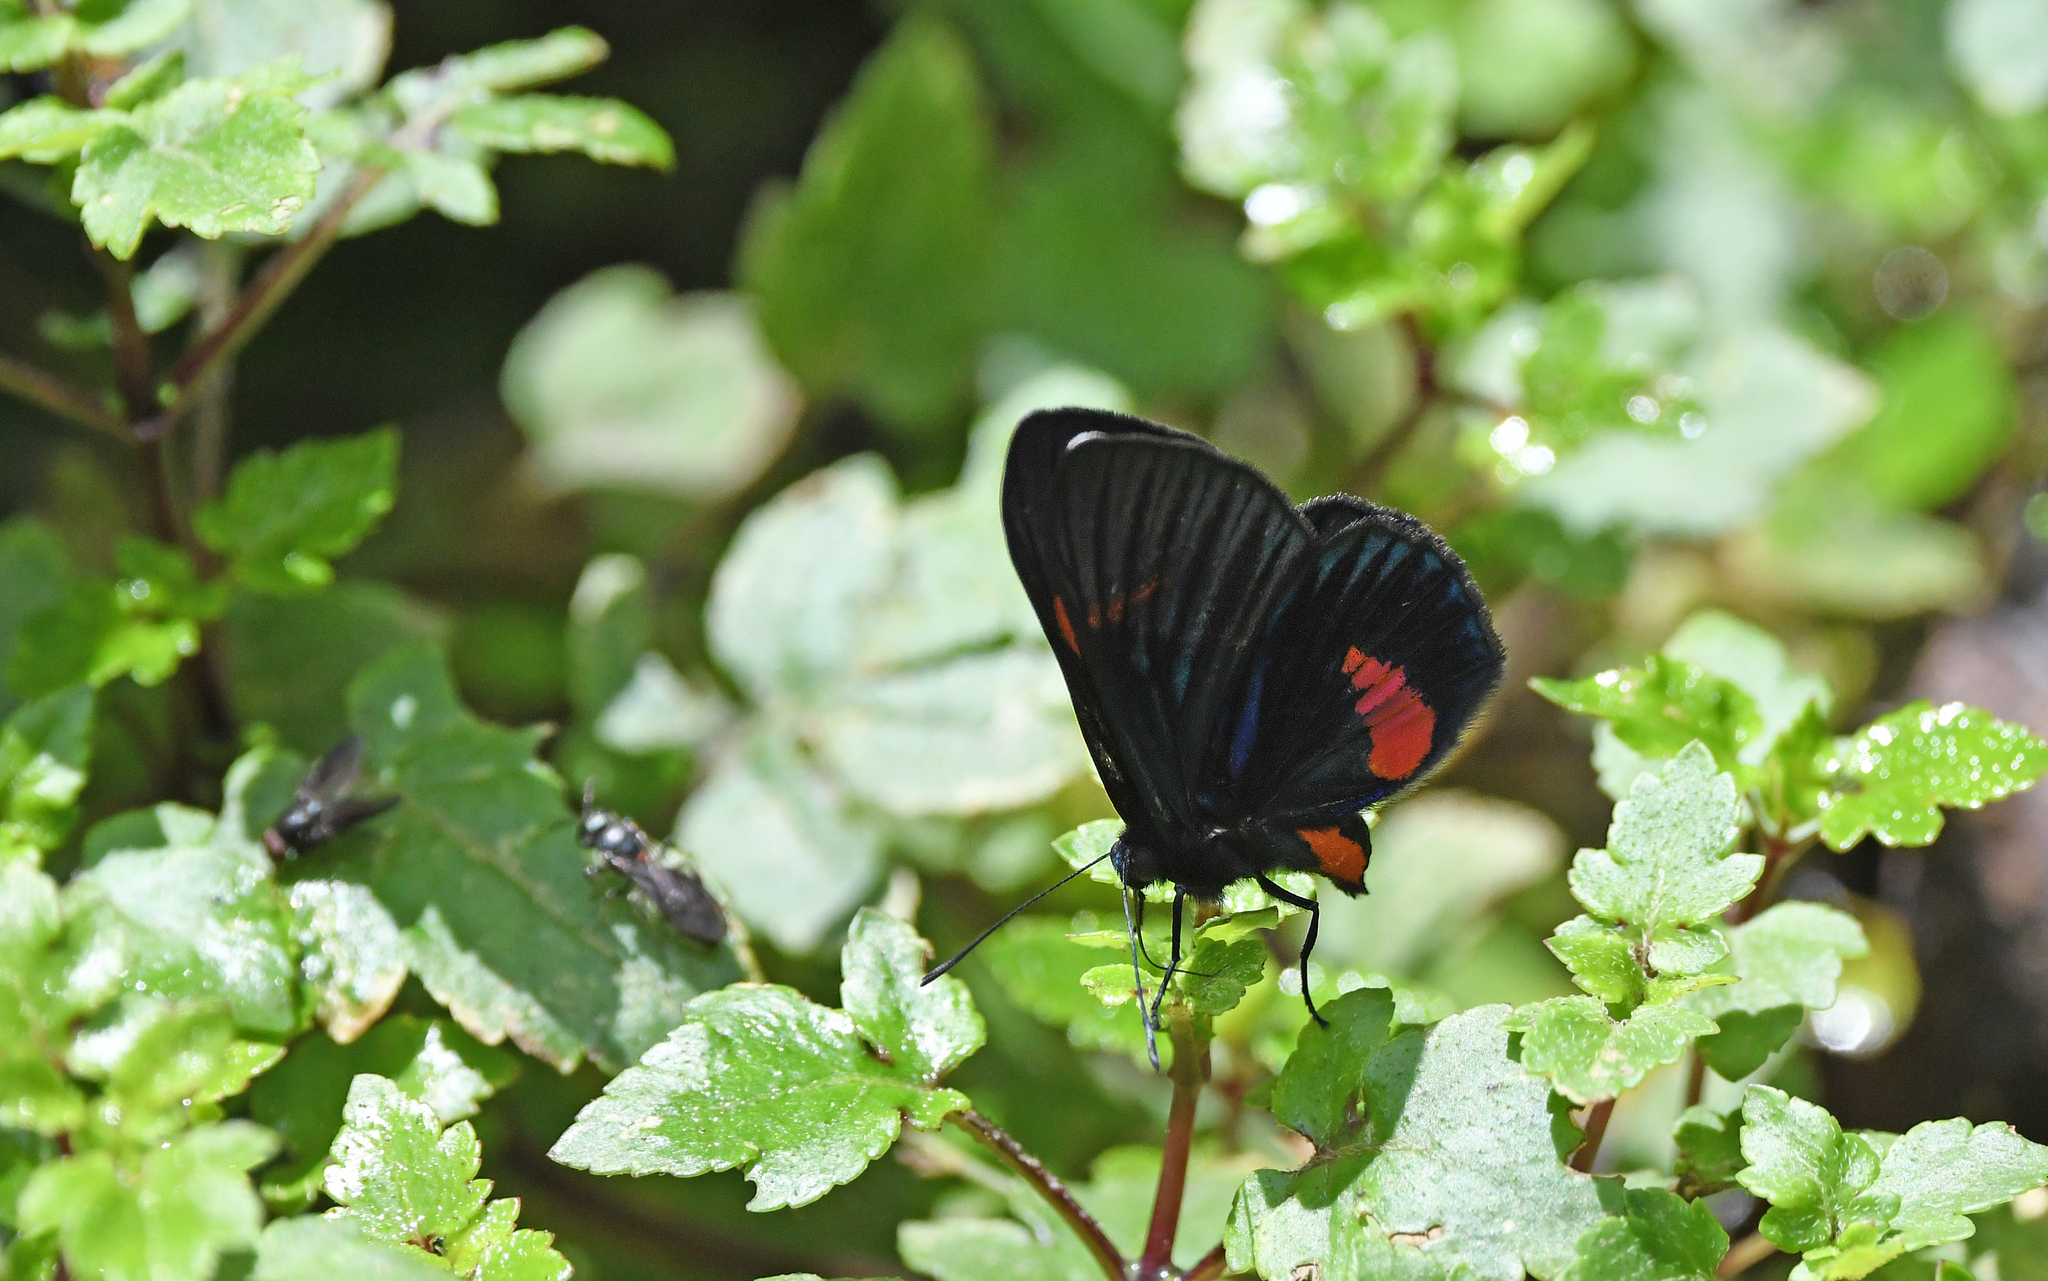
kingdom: Animalia
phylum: Arthropoda
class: Insecta
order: Lepidoptera
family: Lycaenidae
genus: Necyria
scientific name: Necyria bellona
